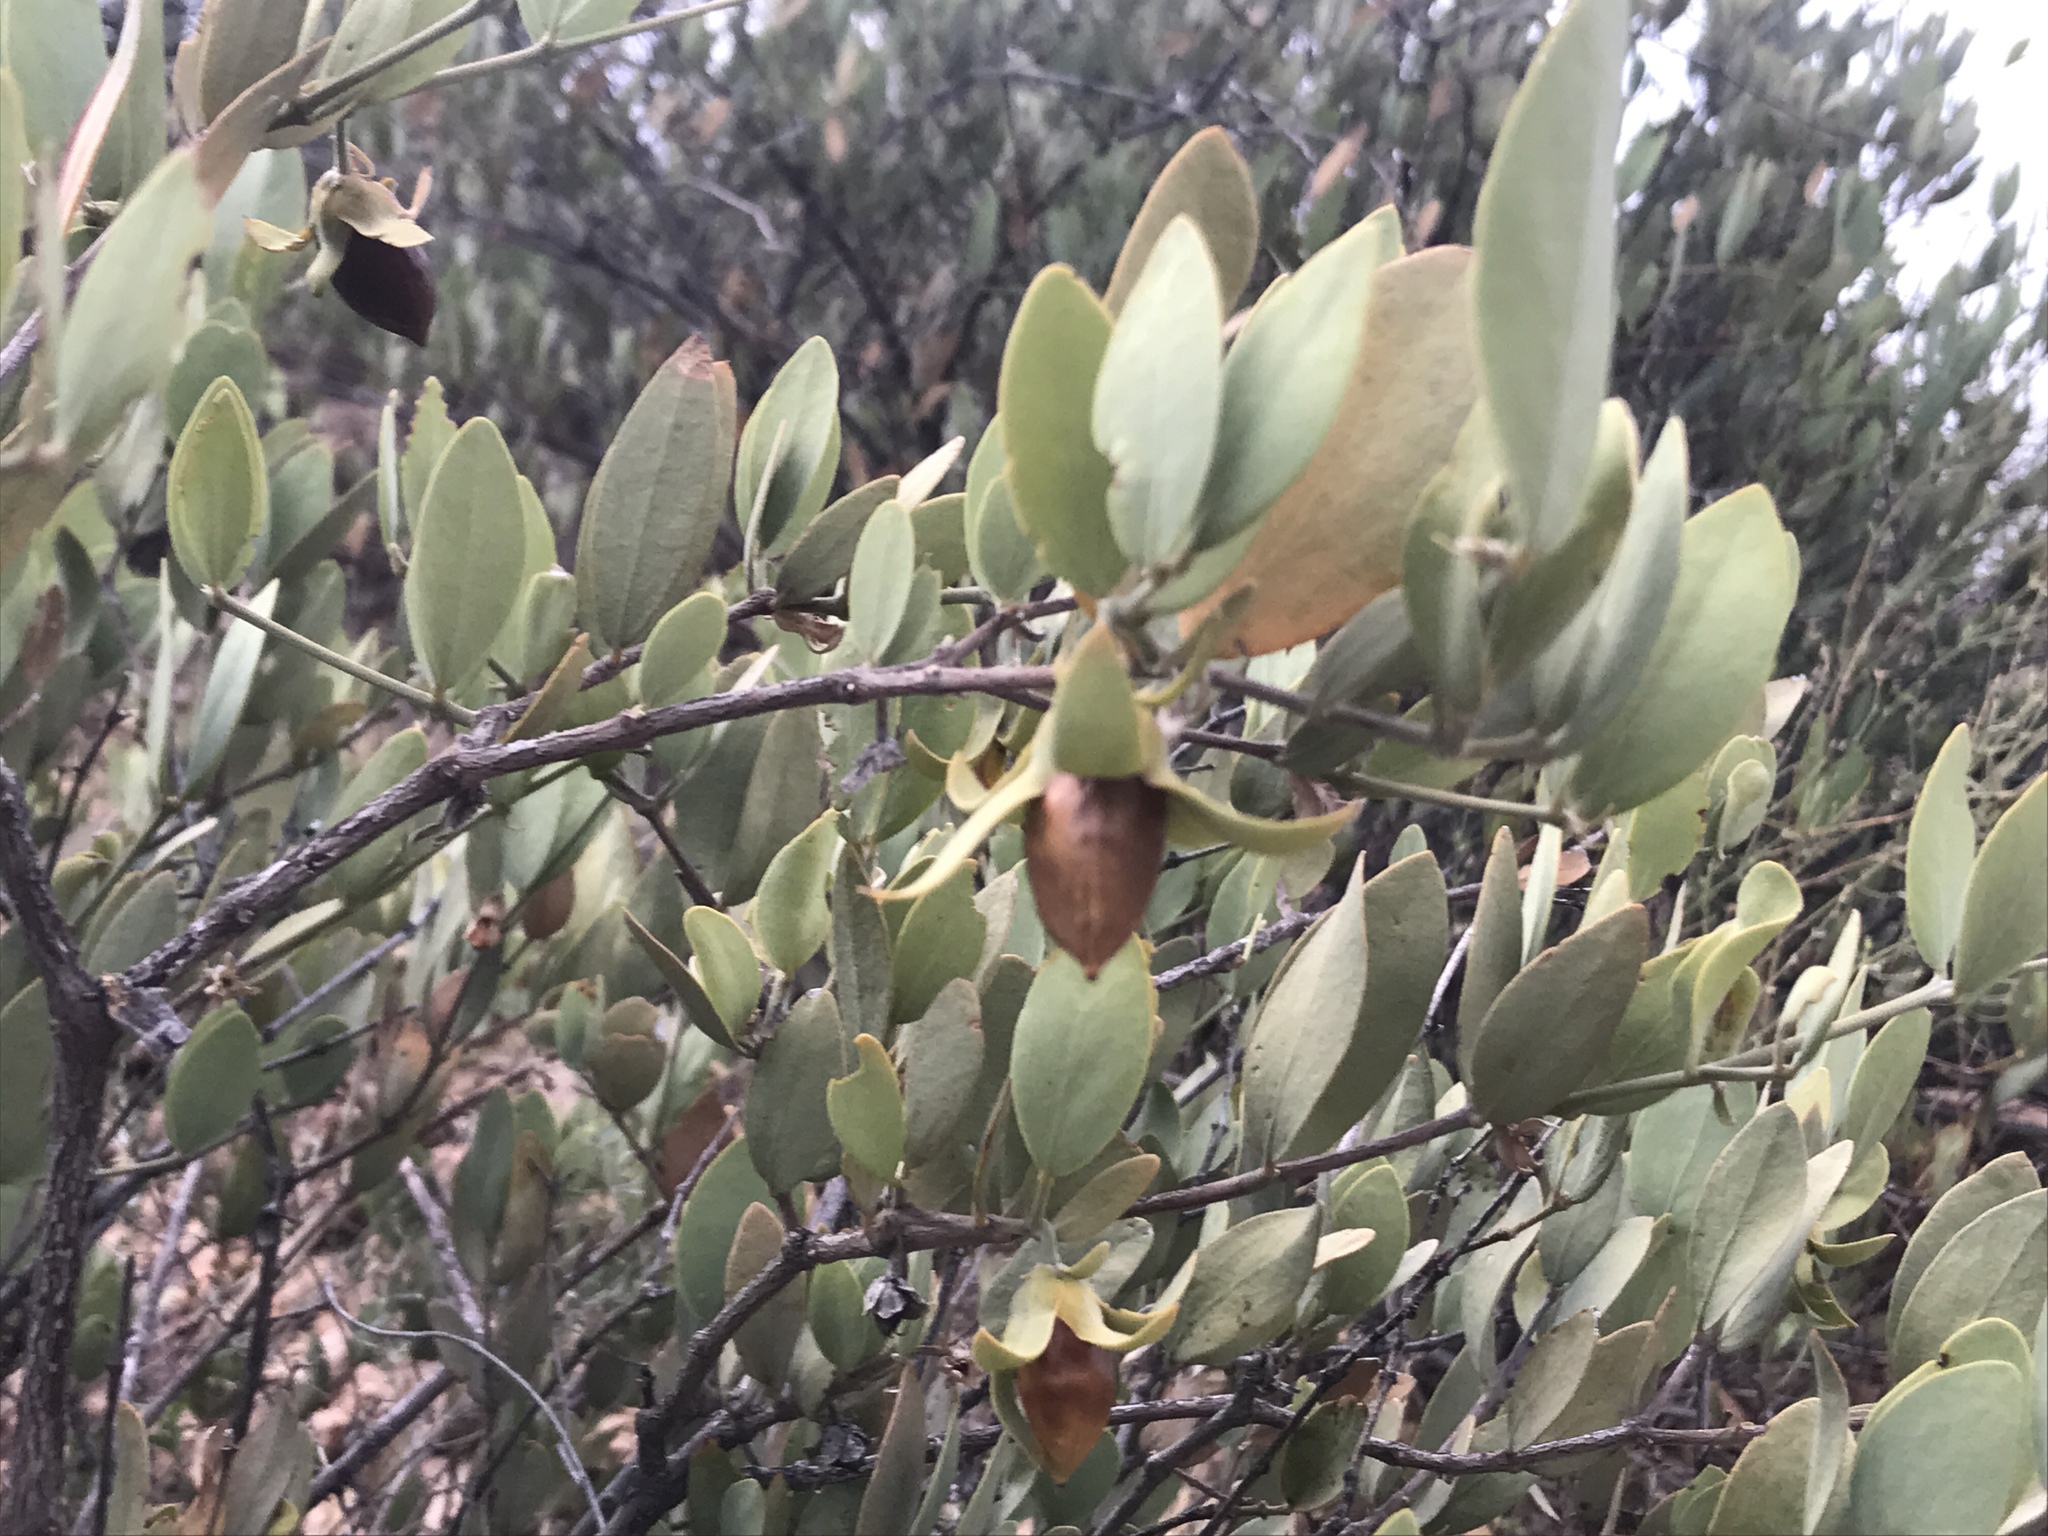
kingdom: Plantae
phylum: Tracheophyta
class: Magnoliopsida
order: Caryophyllales
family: Simmondsiaceae
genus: Simmondsia
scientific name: Simmondsia chinensis
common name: Jojoba
